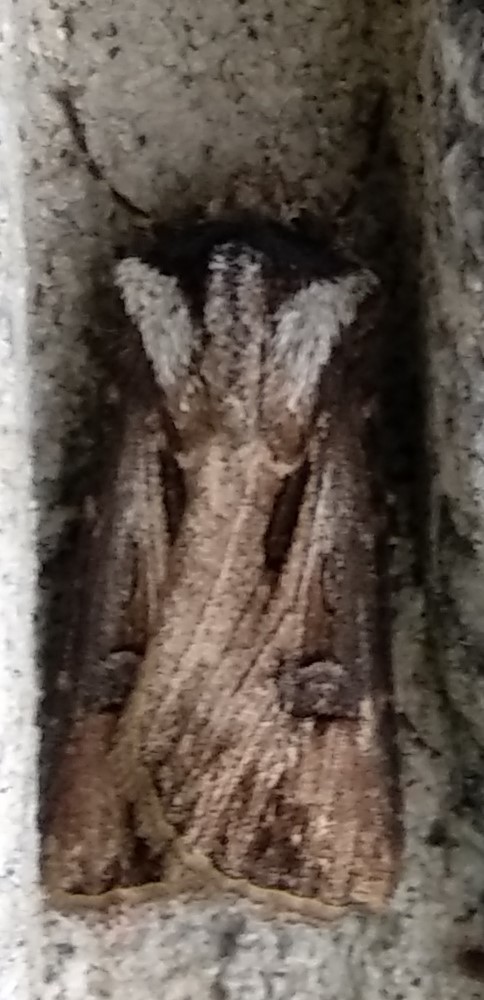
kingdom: Animalia
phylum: Arthropoda
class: Insecta
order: Lepidoptera
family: Noctuidae
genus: Agrotis
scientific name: Agrotis venerabilis
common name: Venerable dart
